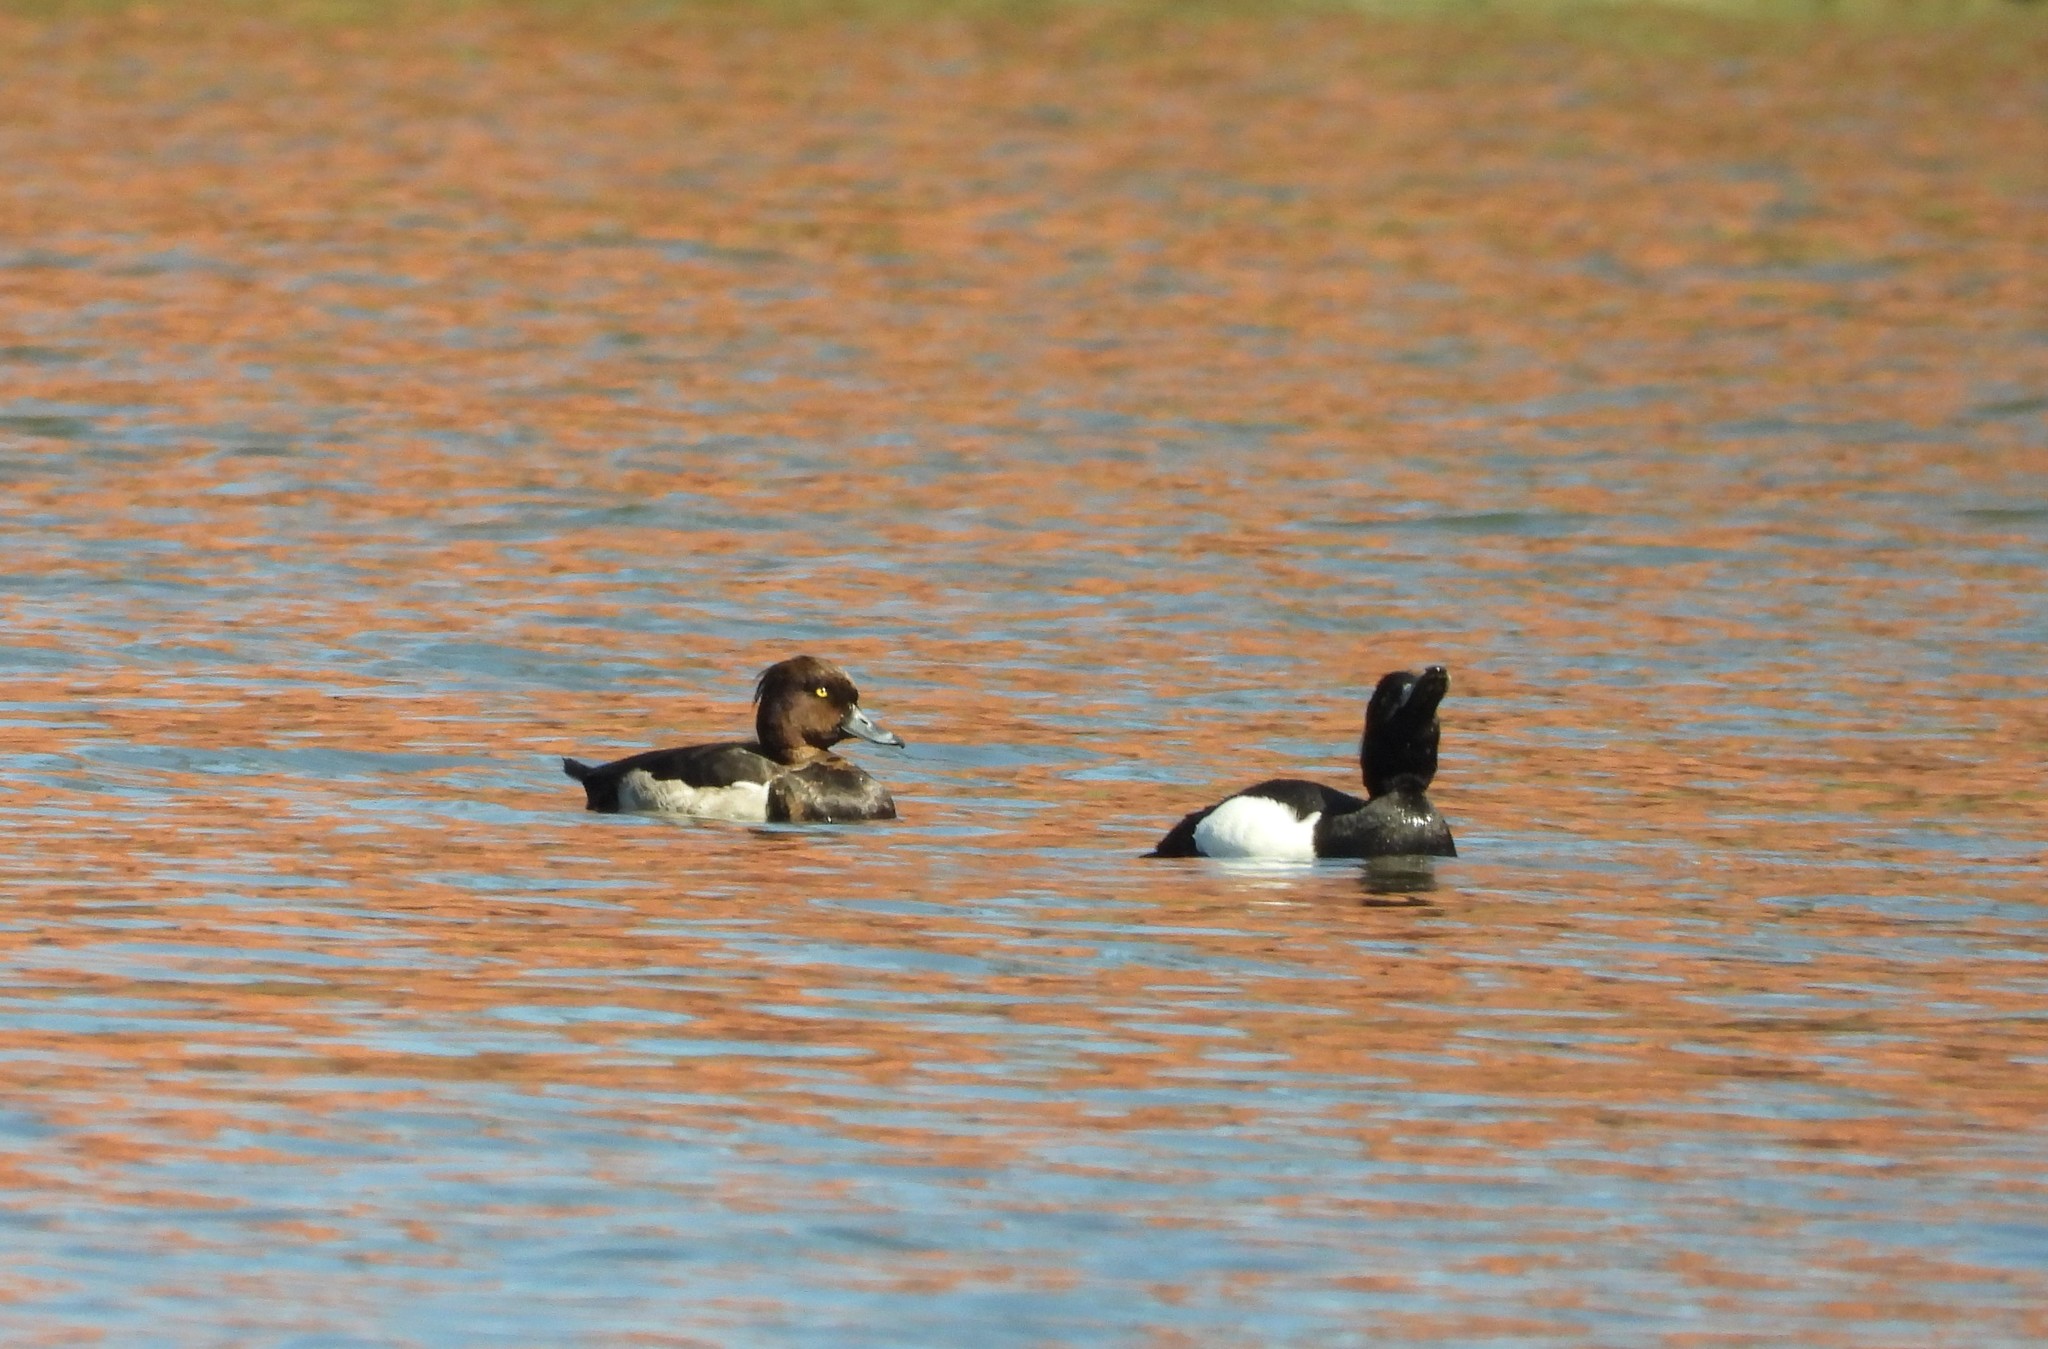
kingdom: Animalia
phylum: Chordata
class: Aves
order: Anseriformes
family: Anatidae
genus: Aythya
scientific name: Aythya fuligula
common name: Tufted duck
